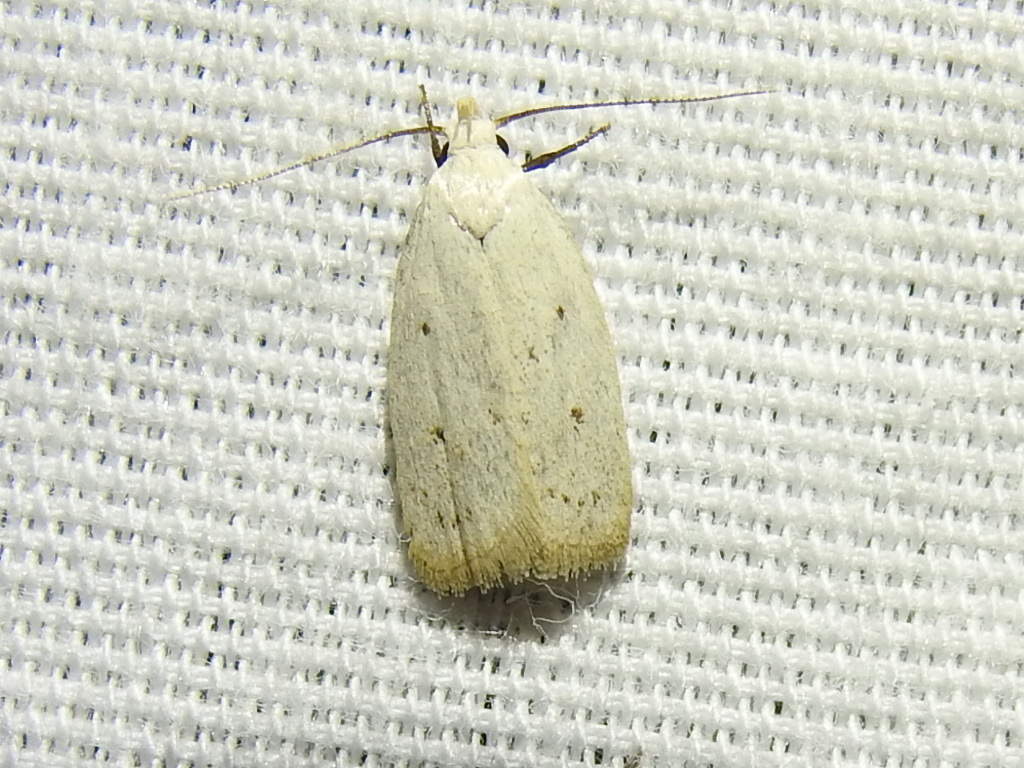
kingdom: Animalia
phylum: Arthropoda
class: Insecta
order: Lepidoptera
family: Oecophoridae
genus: Inga
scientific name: Inga cretacea
